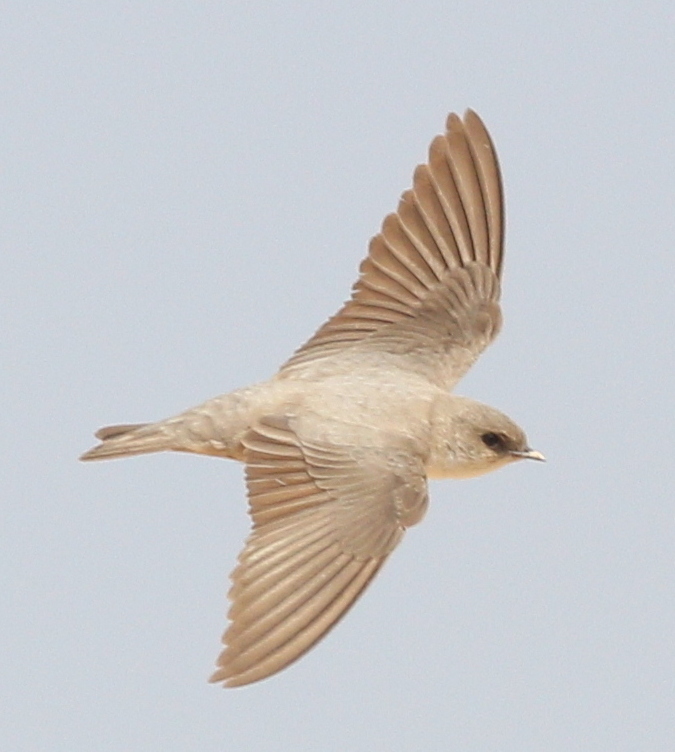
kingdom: Animalia
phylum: Chordata
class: Aves
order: Passeriformes
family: Hirundinidae
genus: Ptyonoprogne
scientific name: Ptyonoprogne fuligula
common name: Rock martin
